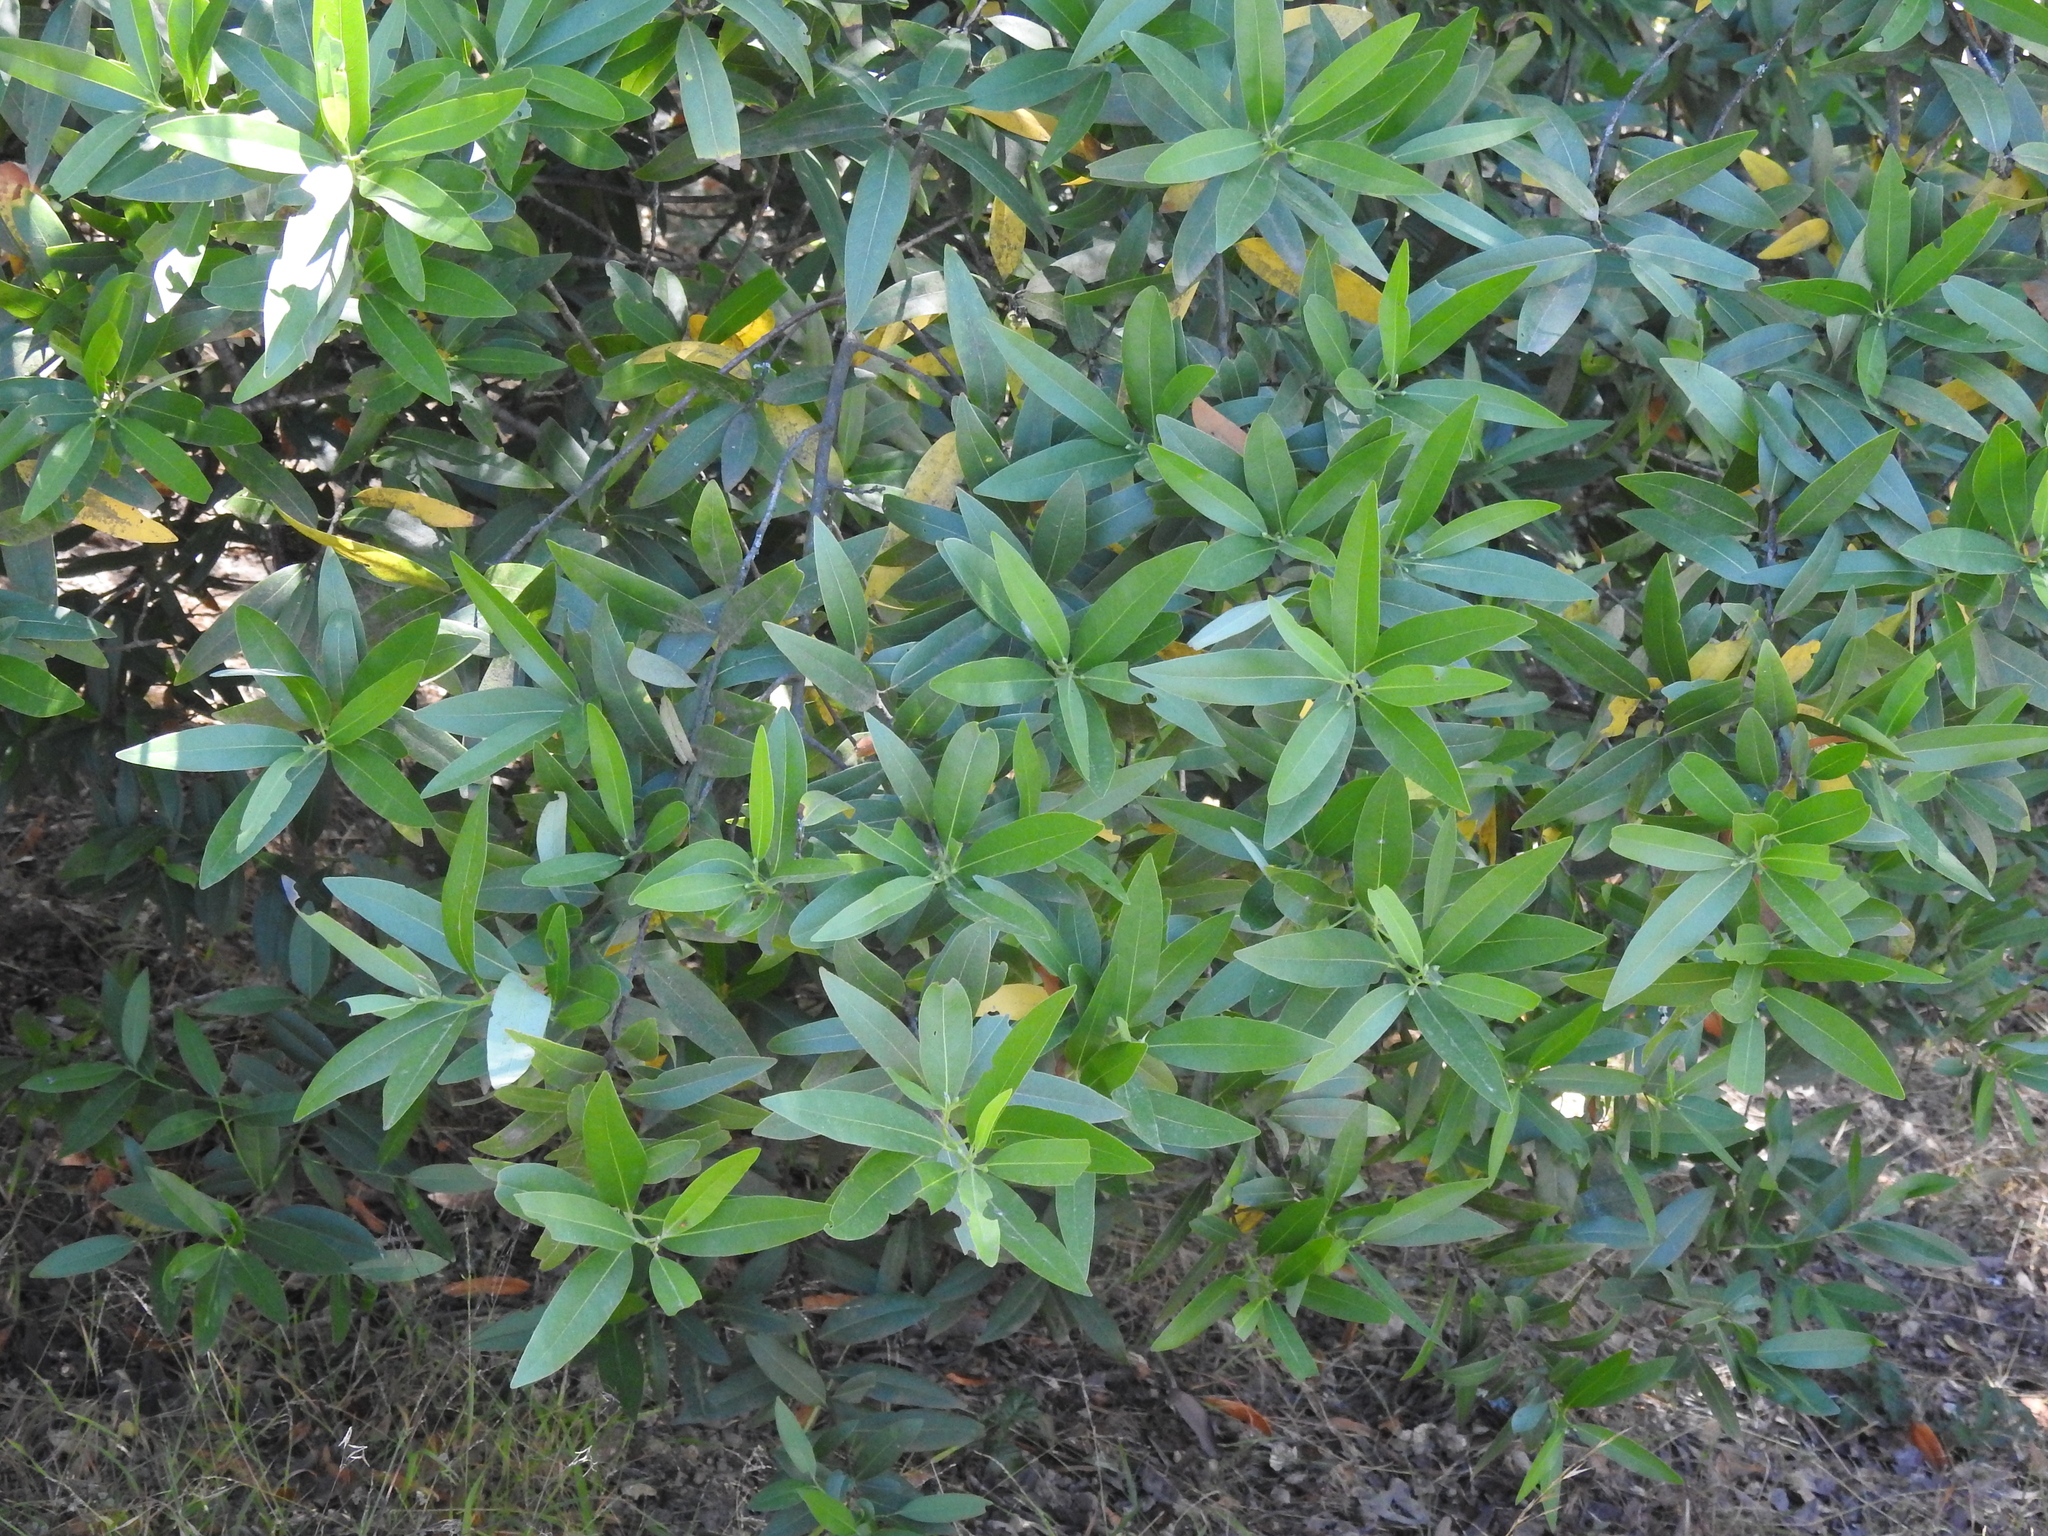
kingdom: Plantae
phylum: Tracheophyta
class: Magnoliopsida
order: Laurales
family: Lauraceae
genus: Umbellularia
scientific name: Umbellularia californica
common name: California bay
